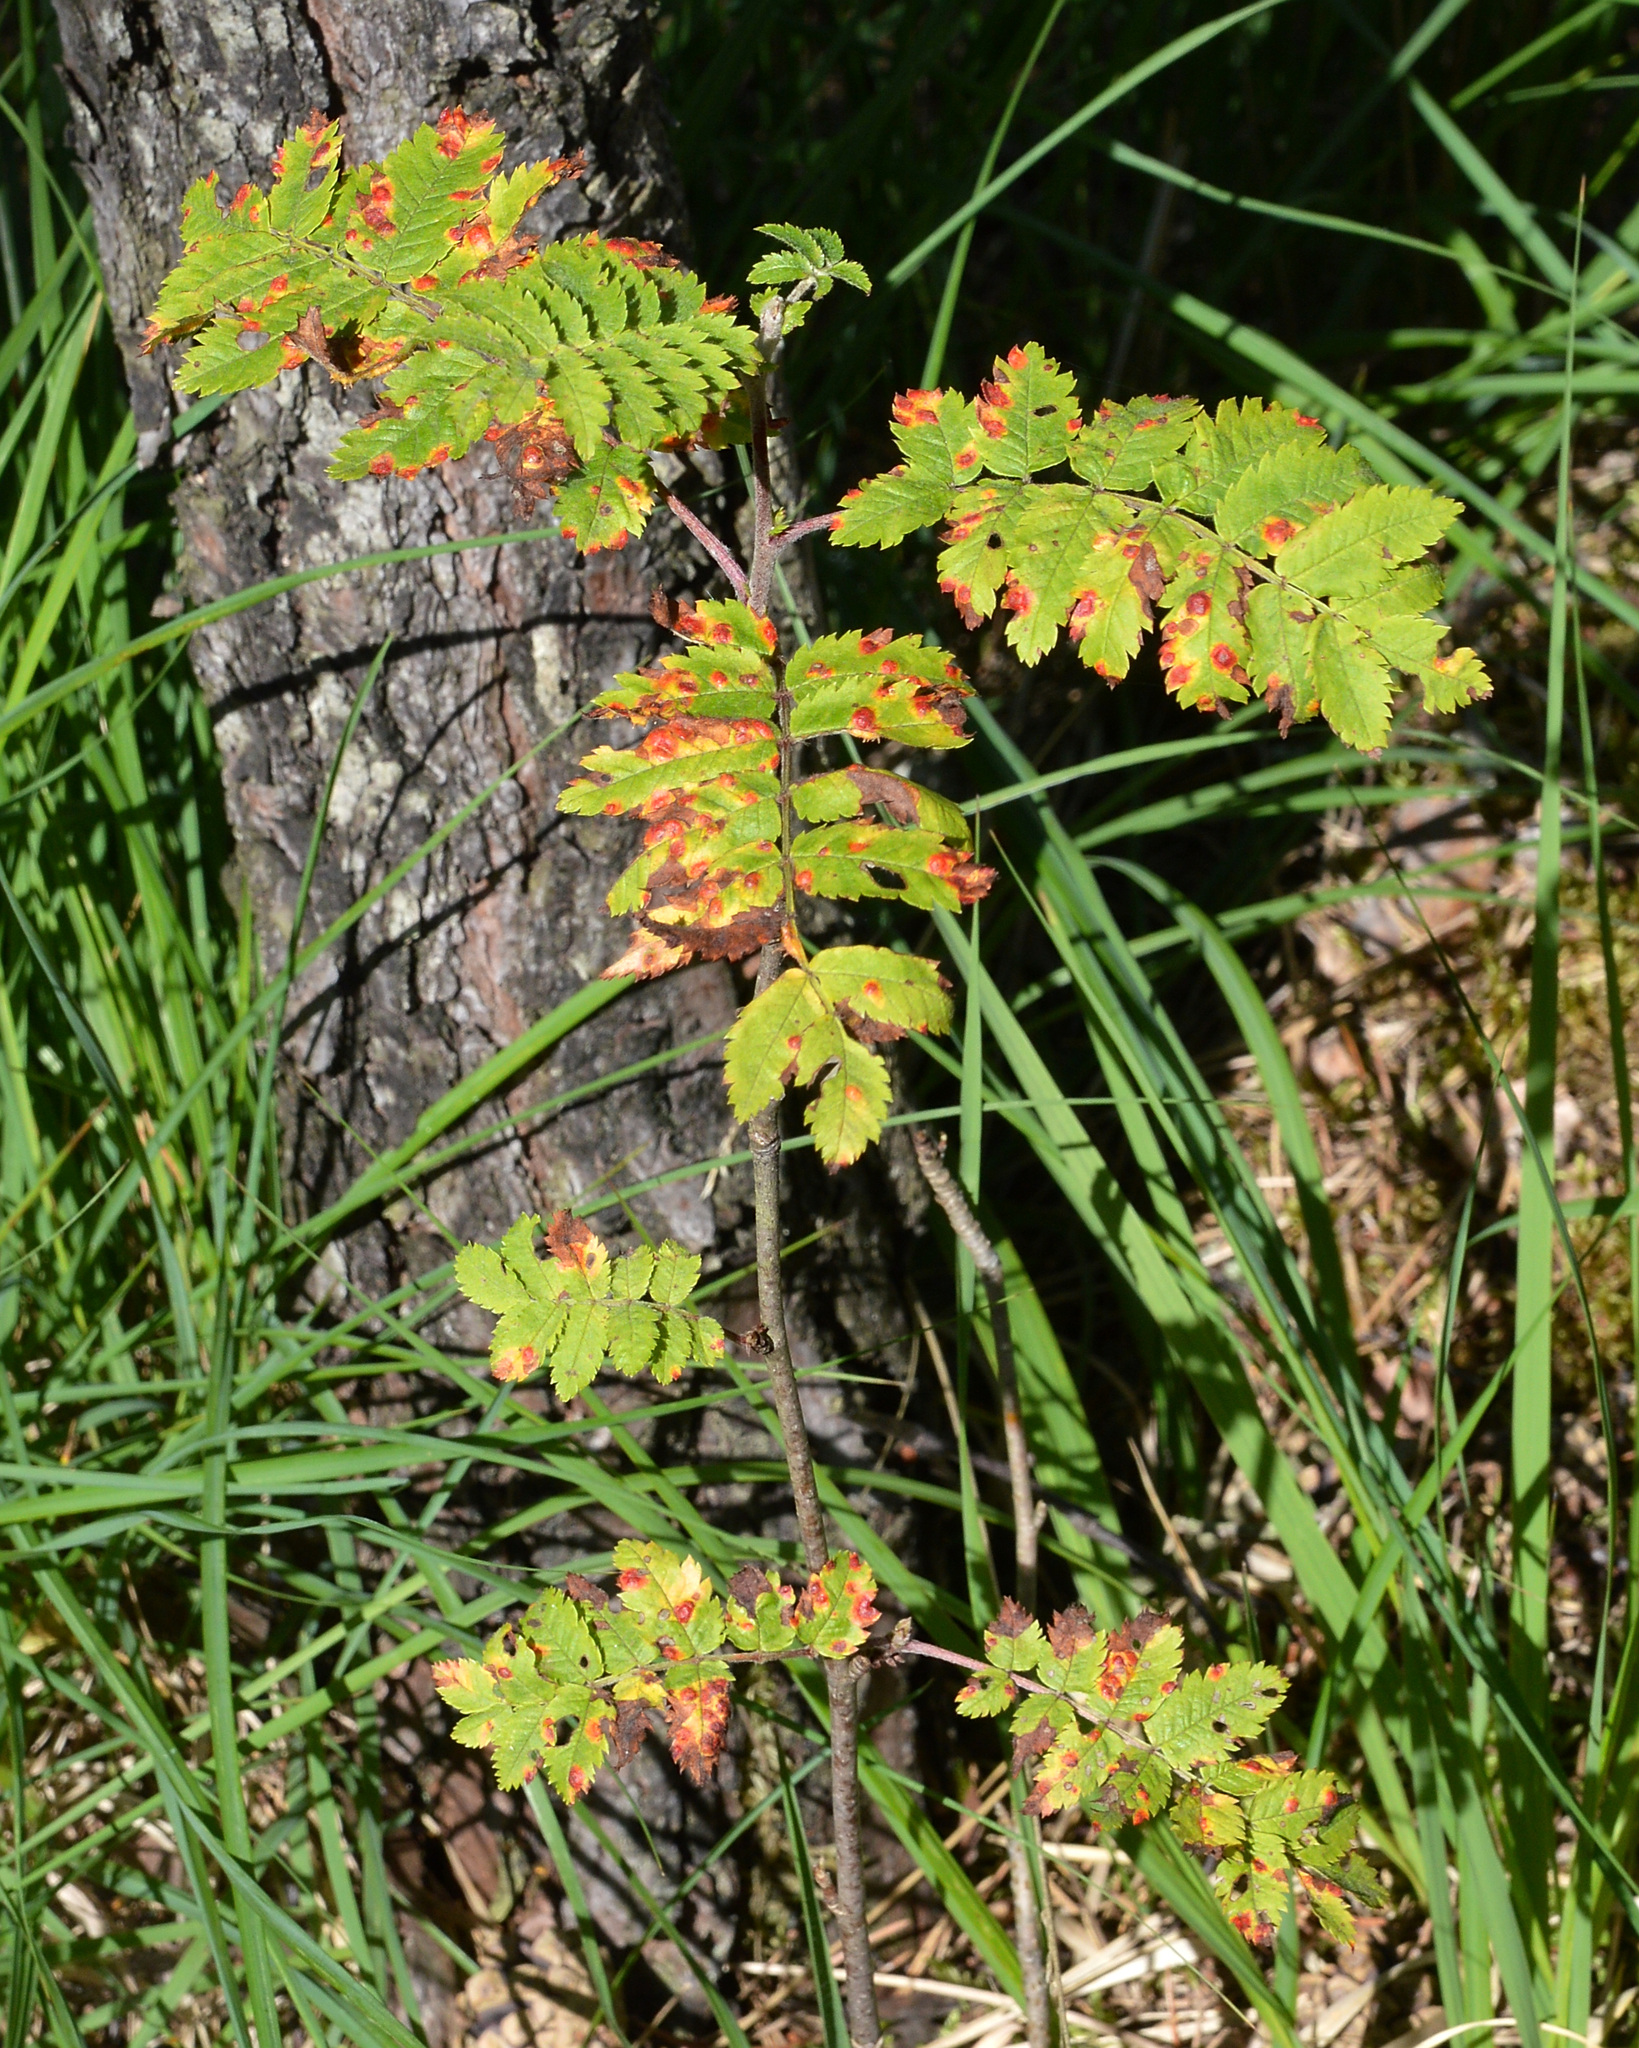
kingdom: Plantae
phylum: Tracheophyta
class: Magnoliopsida
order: Rosales
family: Rosaceae
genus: Sorbus
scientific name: Sorbus aucuparia
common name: Rowan
